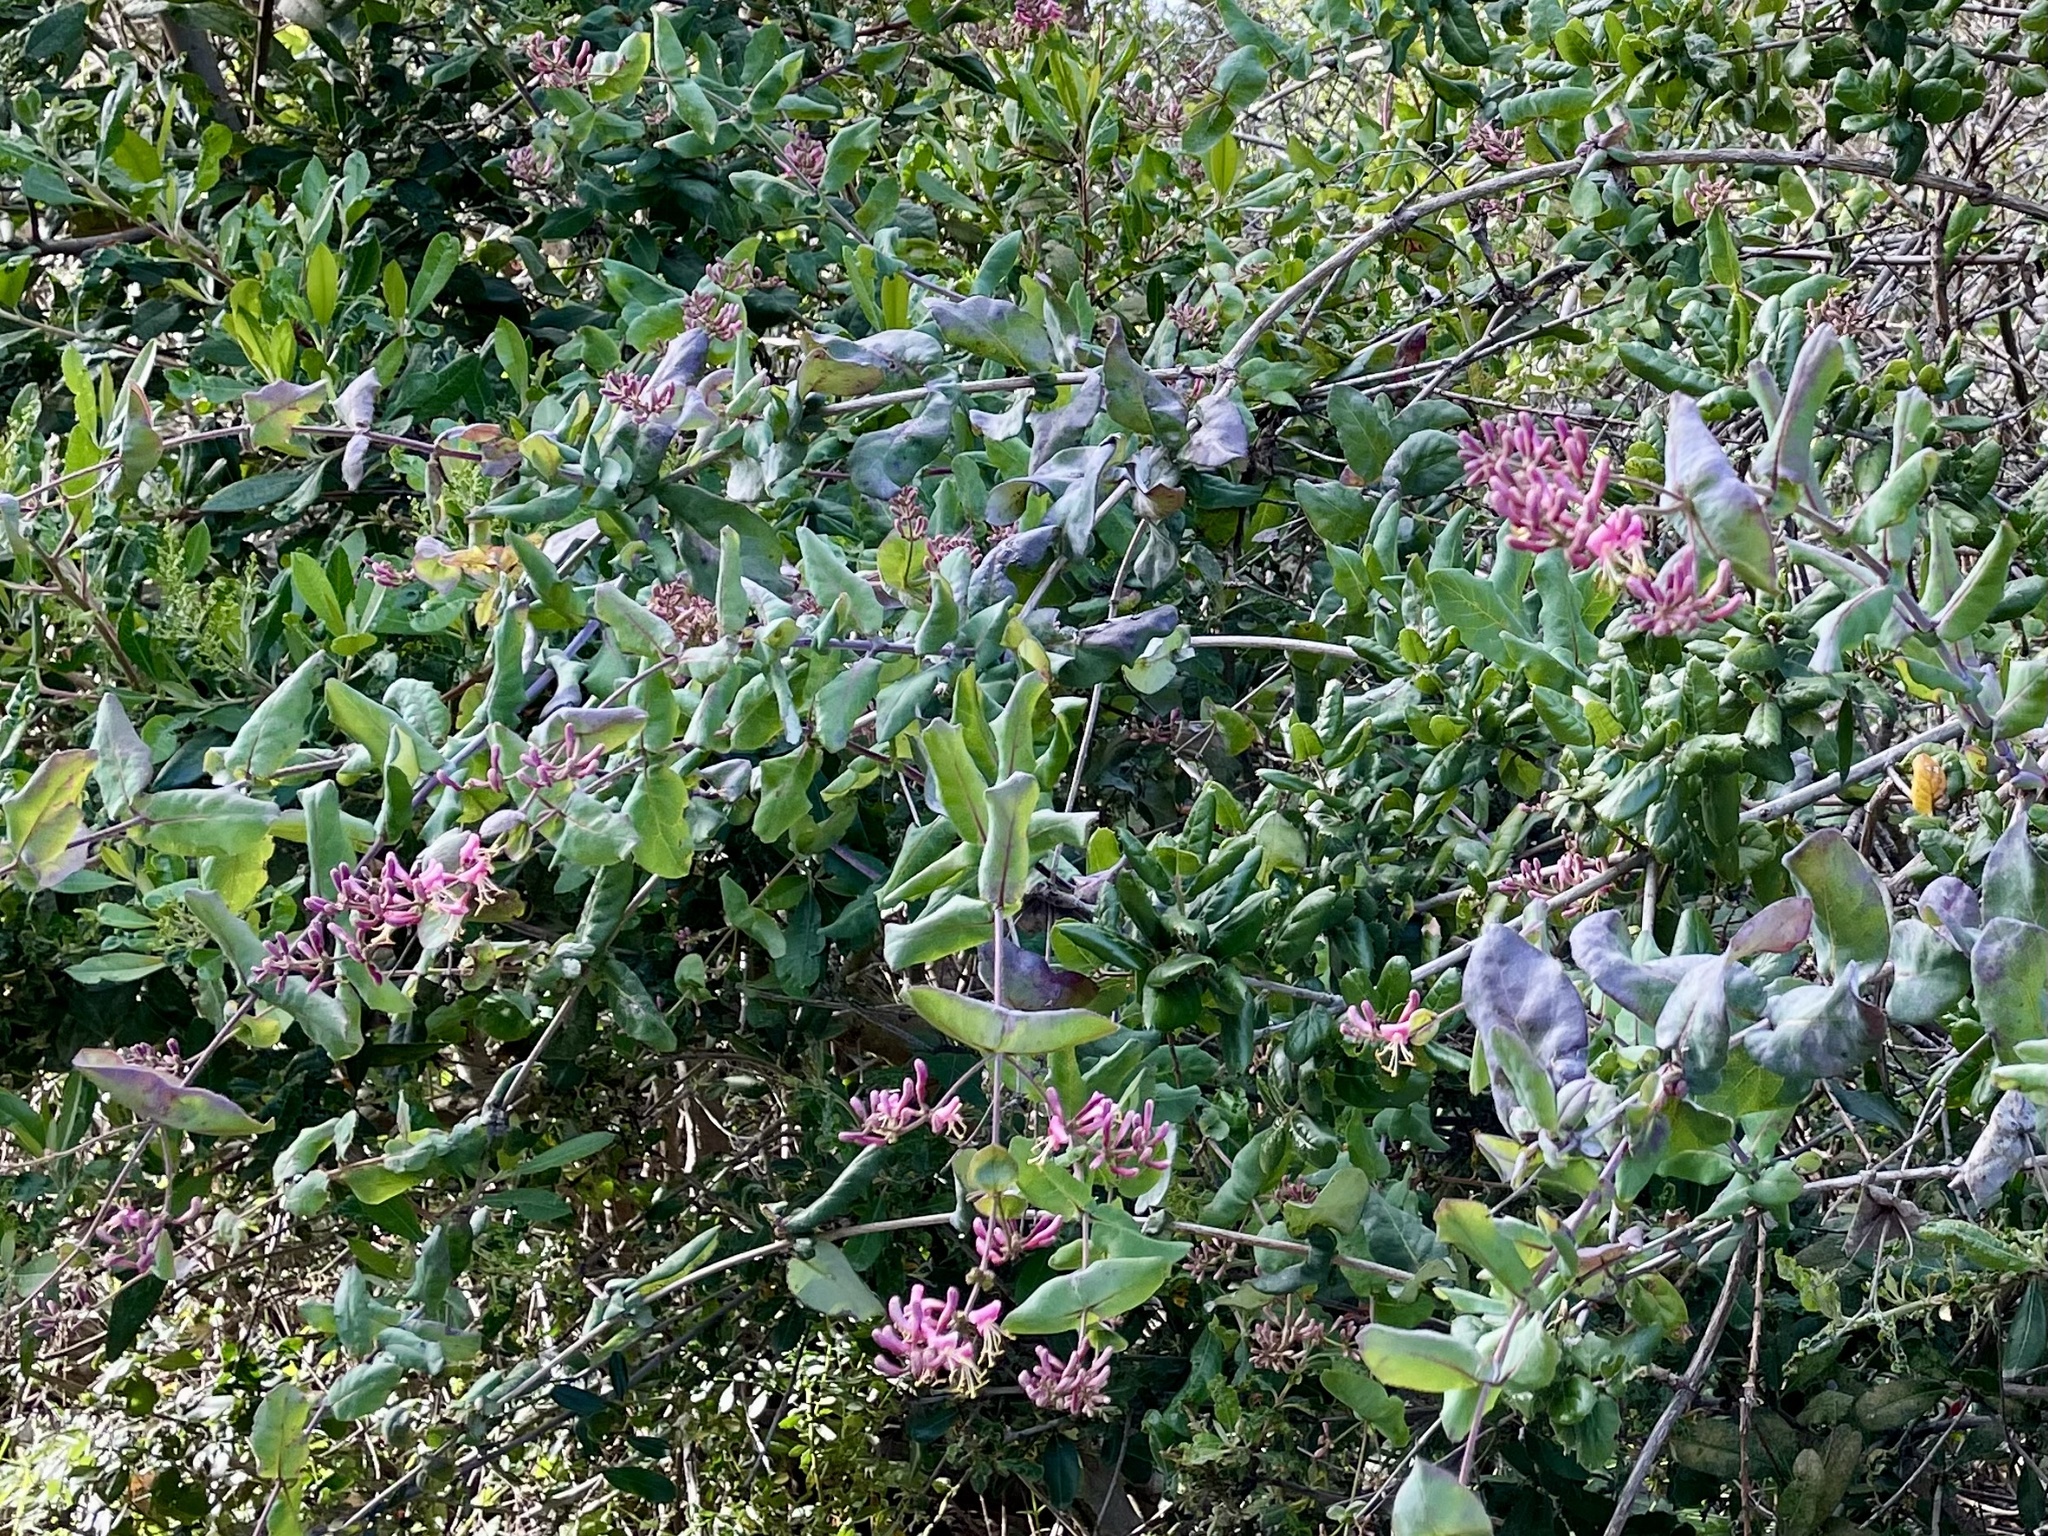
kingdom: Plantae
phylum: Tracheophyta
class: Magnoliopsida
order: Dipsacales
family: Caprifoliaceae
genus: Lonicera
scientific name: Lonicera hispidula
